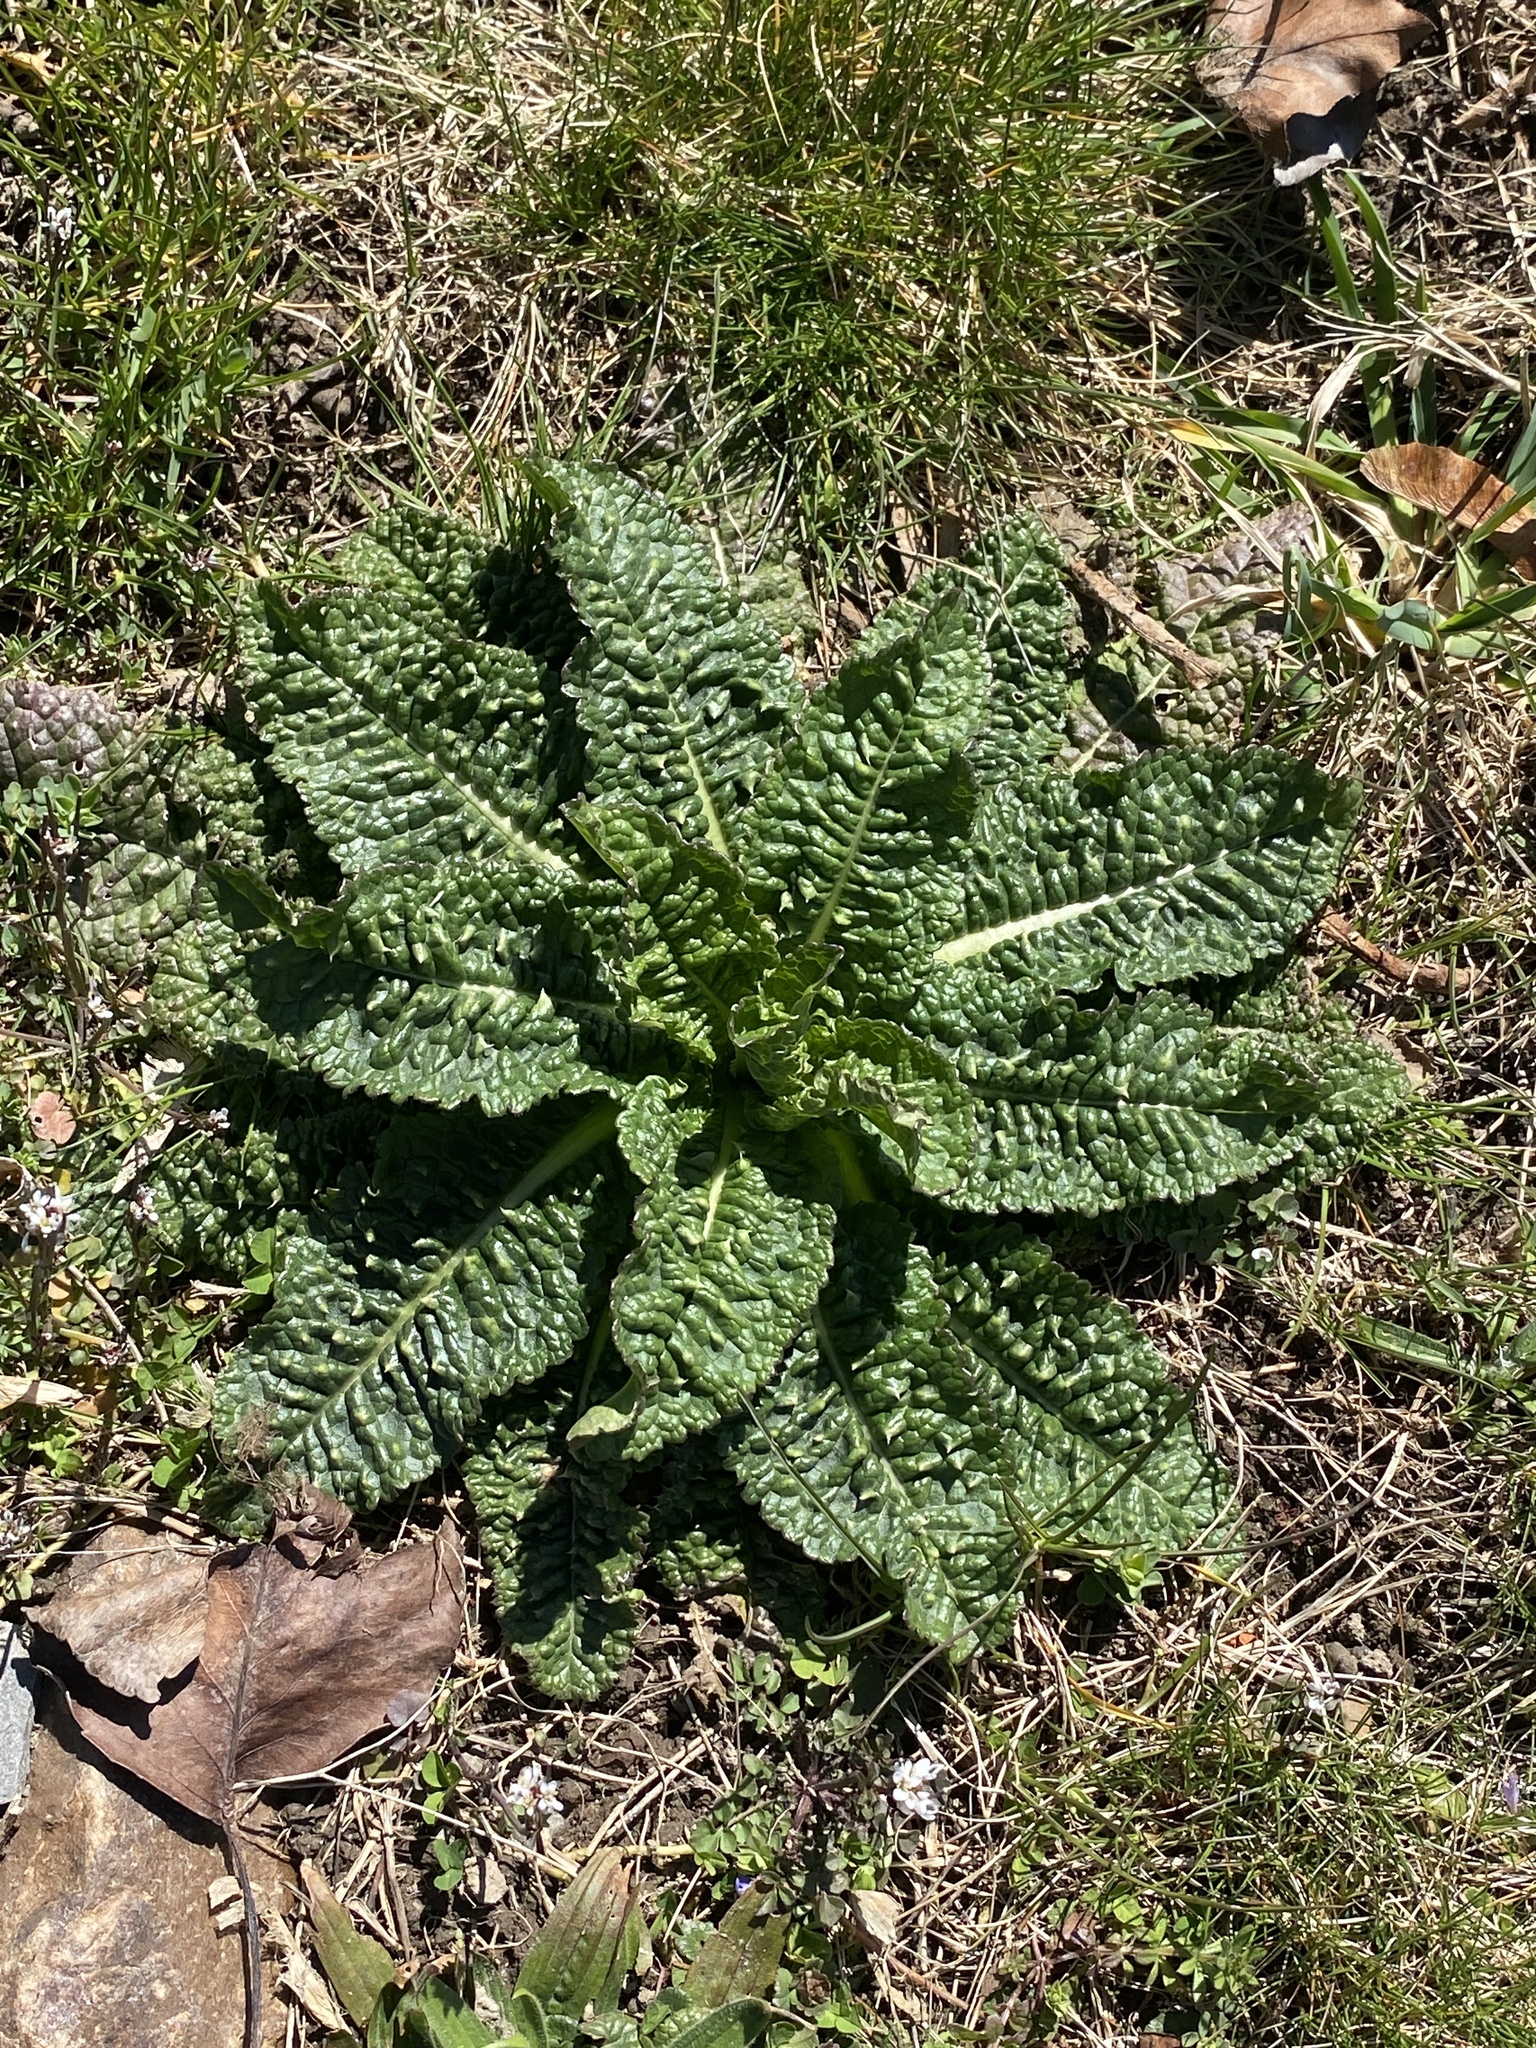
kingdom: Plantae
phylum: Tracheophyta
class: Magnoliopsida
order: Dipsacales
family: Caprifoliaceae
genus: Dipsacus
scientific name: Dipsacus fullonum
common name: Teasel
